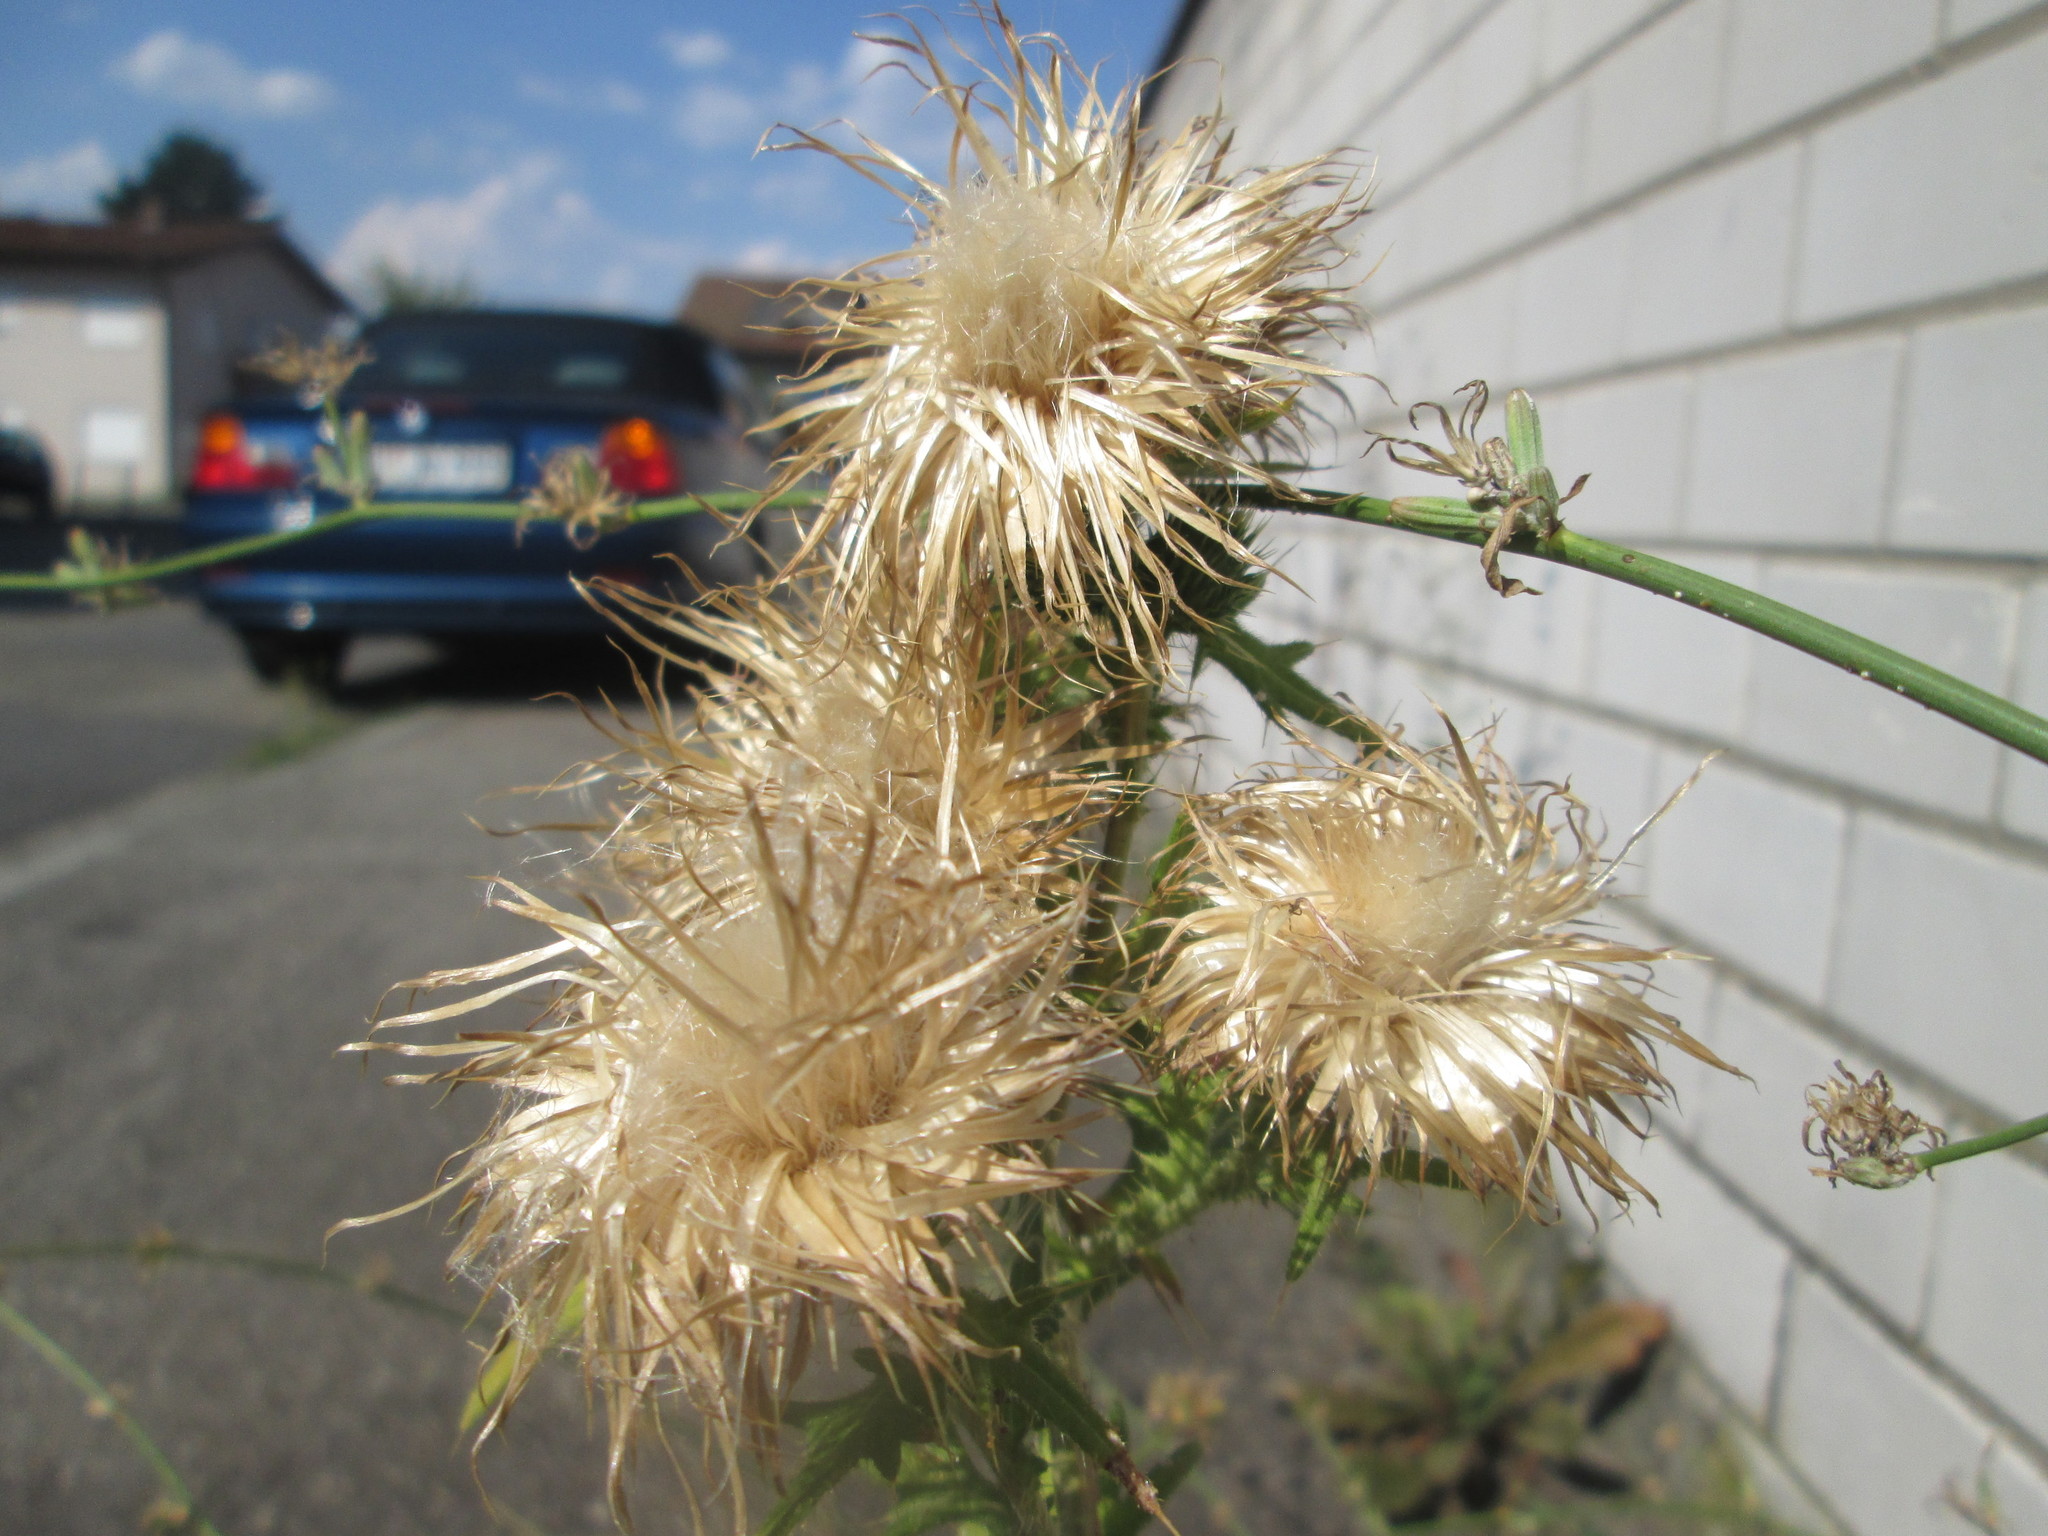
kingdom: Plantae
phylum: Tracheophyta
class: Magnoliopsida
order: Asterales
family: Asteraceae
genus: Cirsium
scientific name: Cirsium vulgare
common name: Bull thistle
